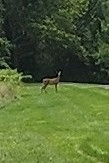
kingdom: Animalia
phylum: Chordata
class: Mammalia
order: Artiodactyla
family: Cervidae
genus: Odocoileus
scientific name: Odocoileus virginianus
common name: White-tailed deer
